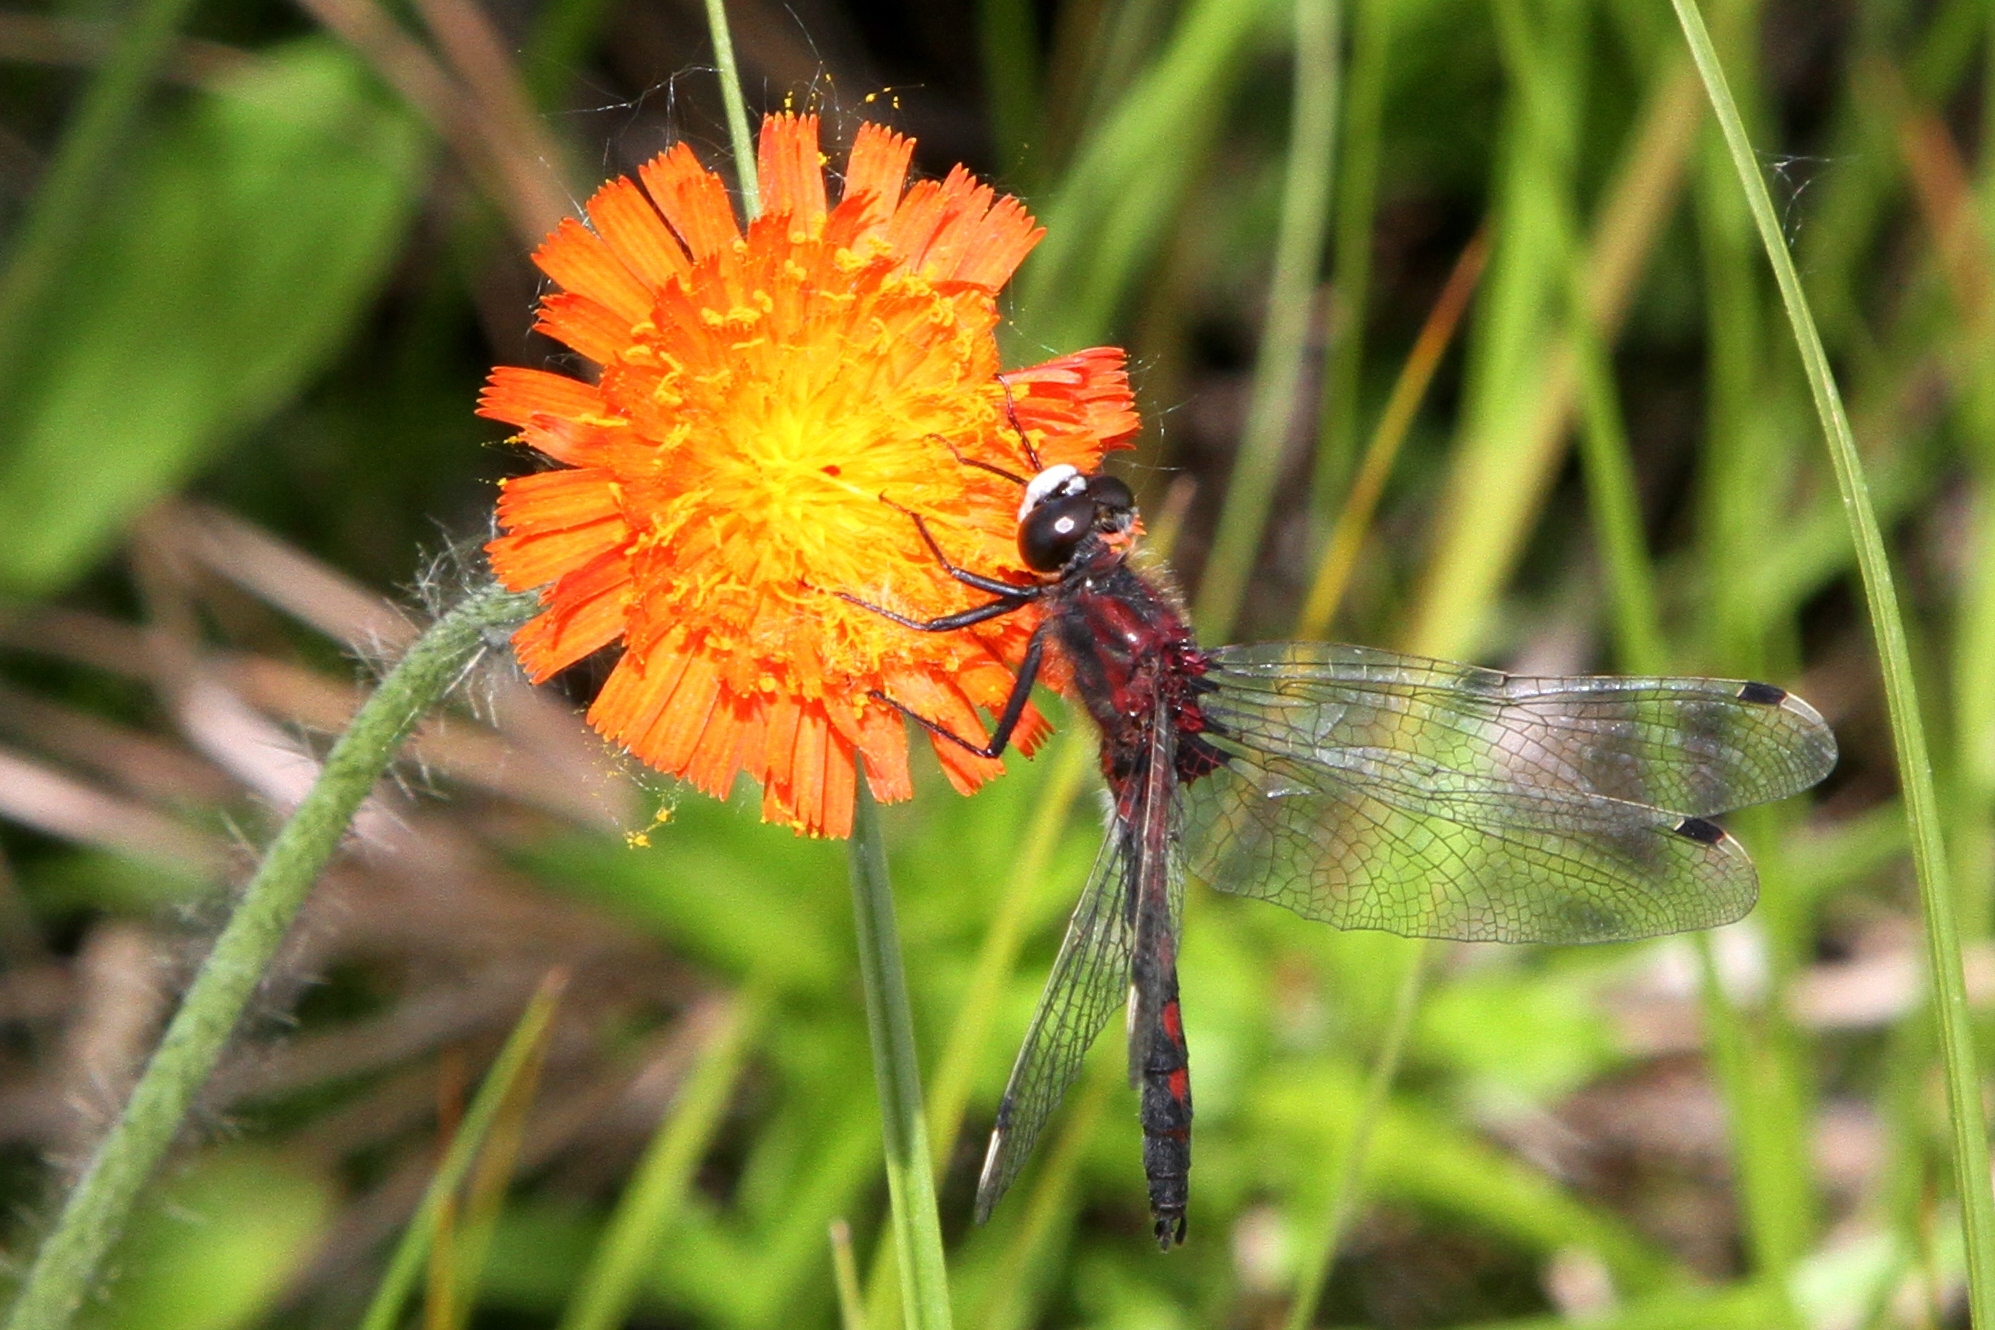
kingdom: Animalia
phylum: Arthropoda
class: Insecta
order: Odonata
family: Libellulidae
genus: Leucorrhinia
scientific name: Leucorrhinia hudsonica
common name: Hudsonian whiteface
